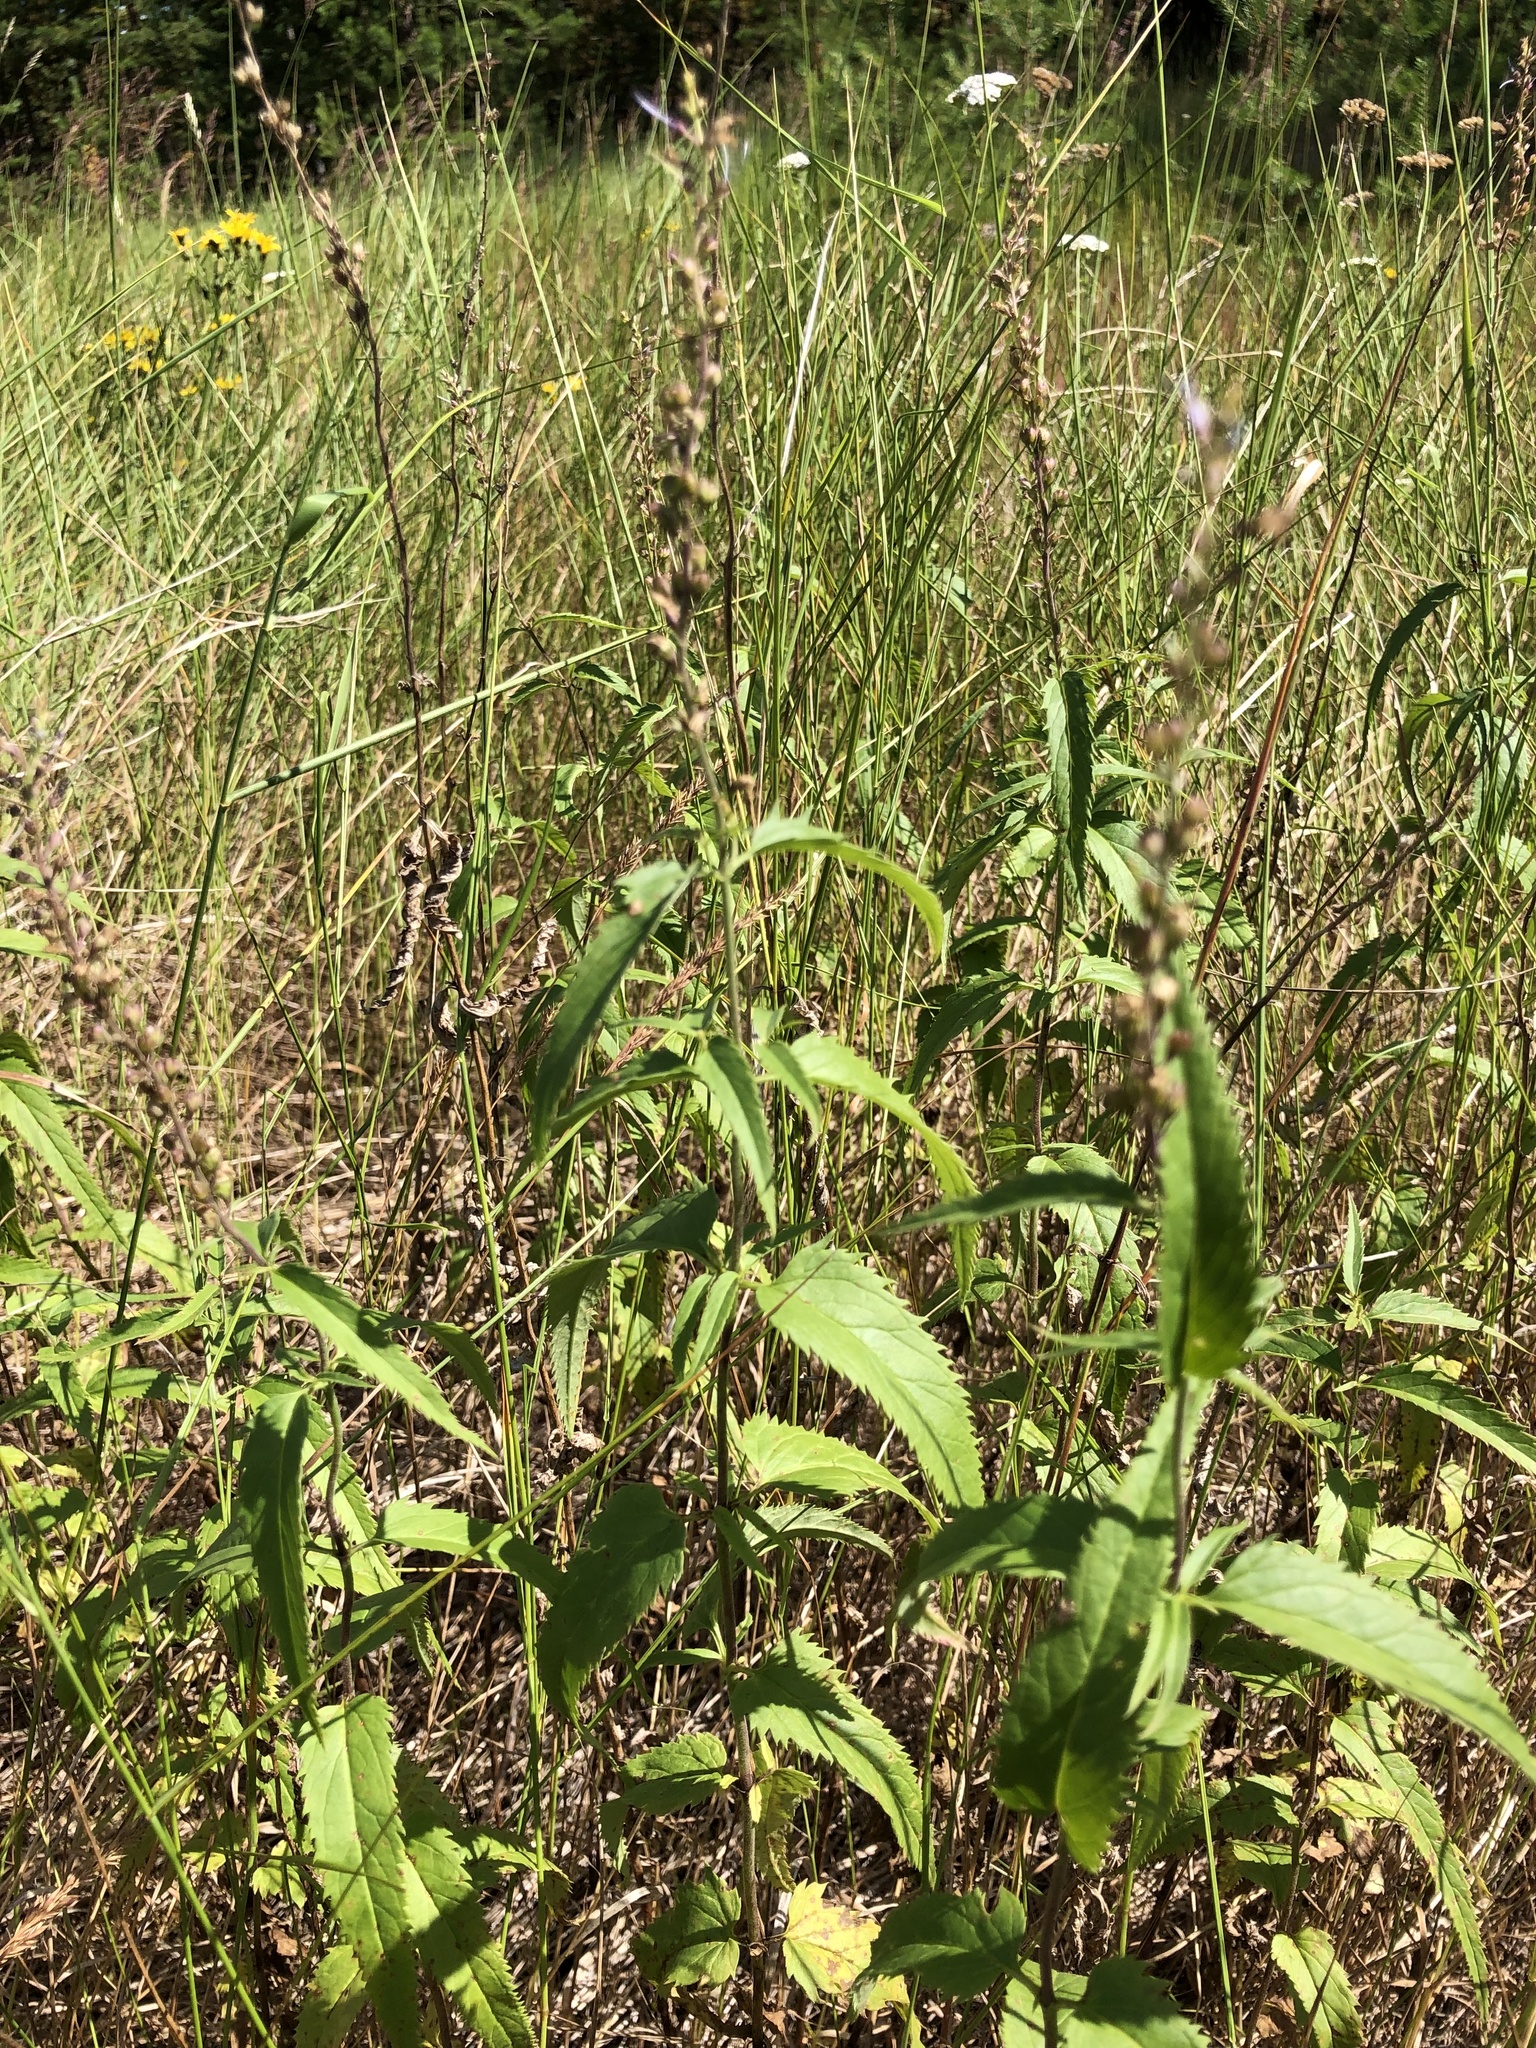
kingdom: Plantae
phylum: Tracheophyta
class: Magnoliopsida
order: Lamiales
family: Plantaginaceae
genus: Veronica
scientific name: Veronica longifolia
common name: Garden speedwell
